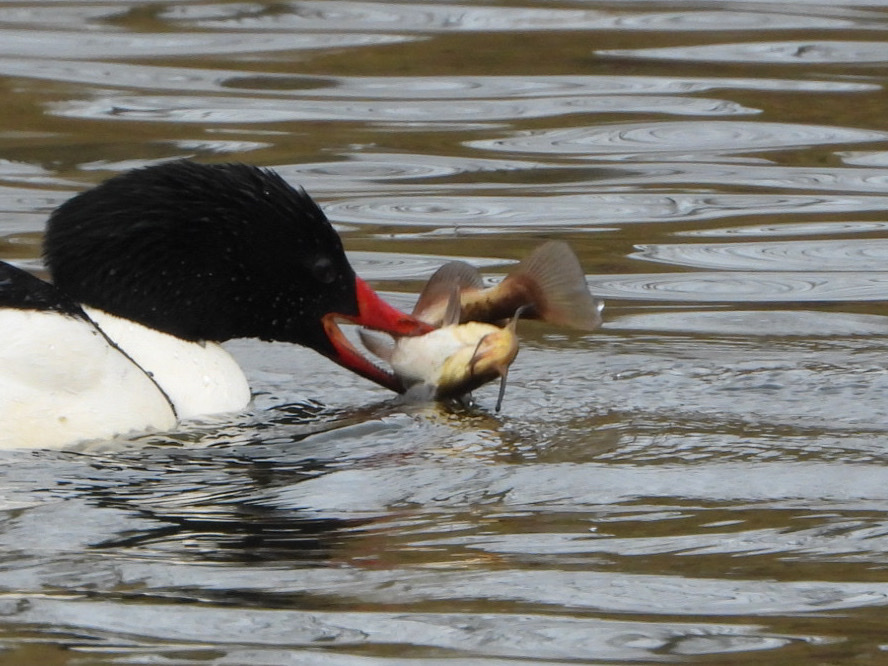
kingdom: Animalia
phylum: Chordata
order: Siluriformes
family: Ictaluridae
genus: Ameiurus
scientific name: Ameiurus nebulosus
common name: Brown bullhead
